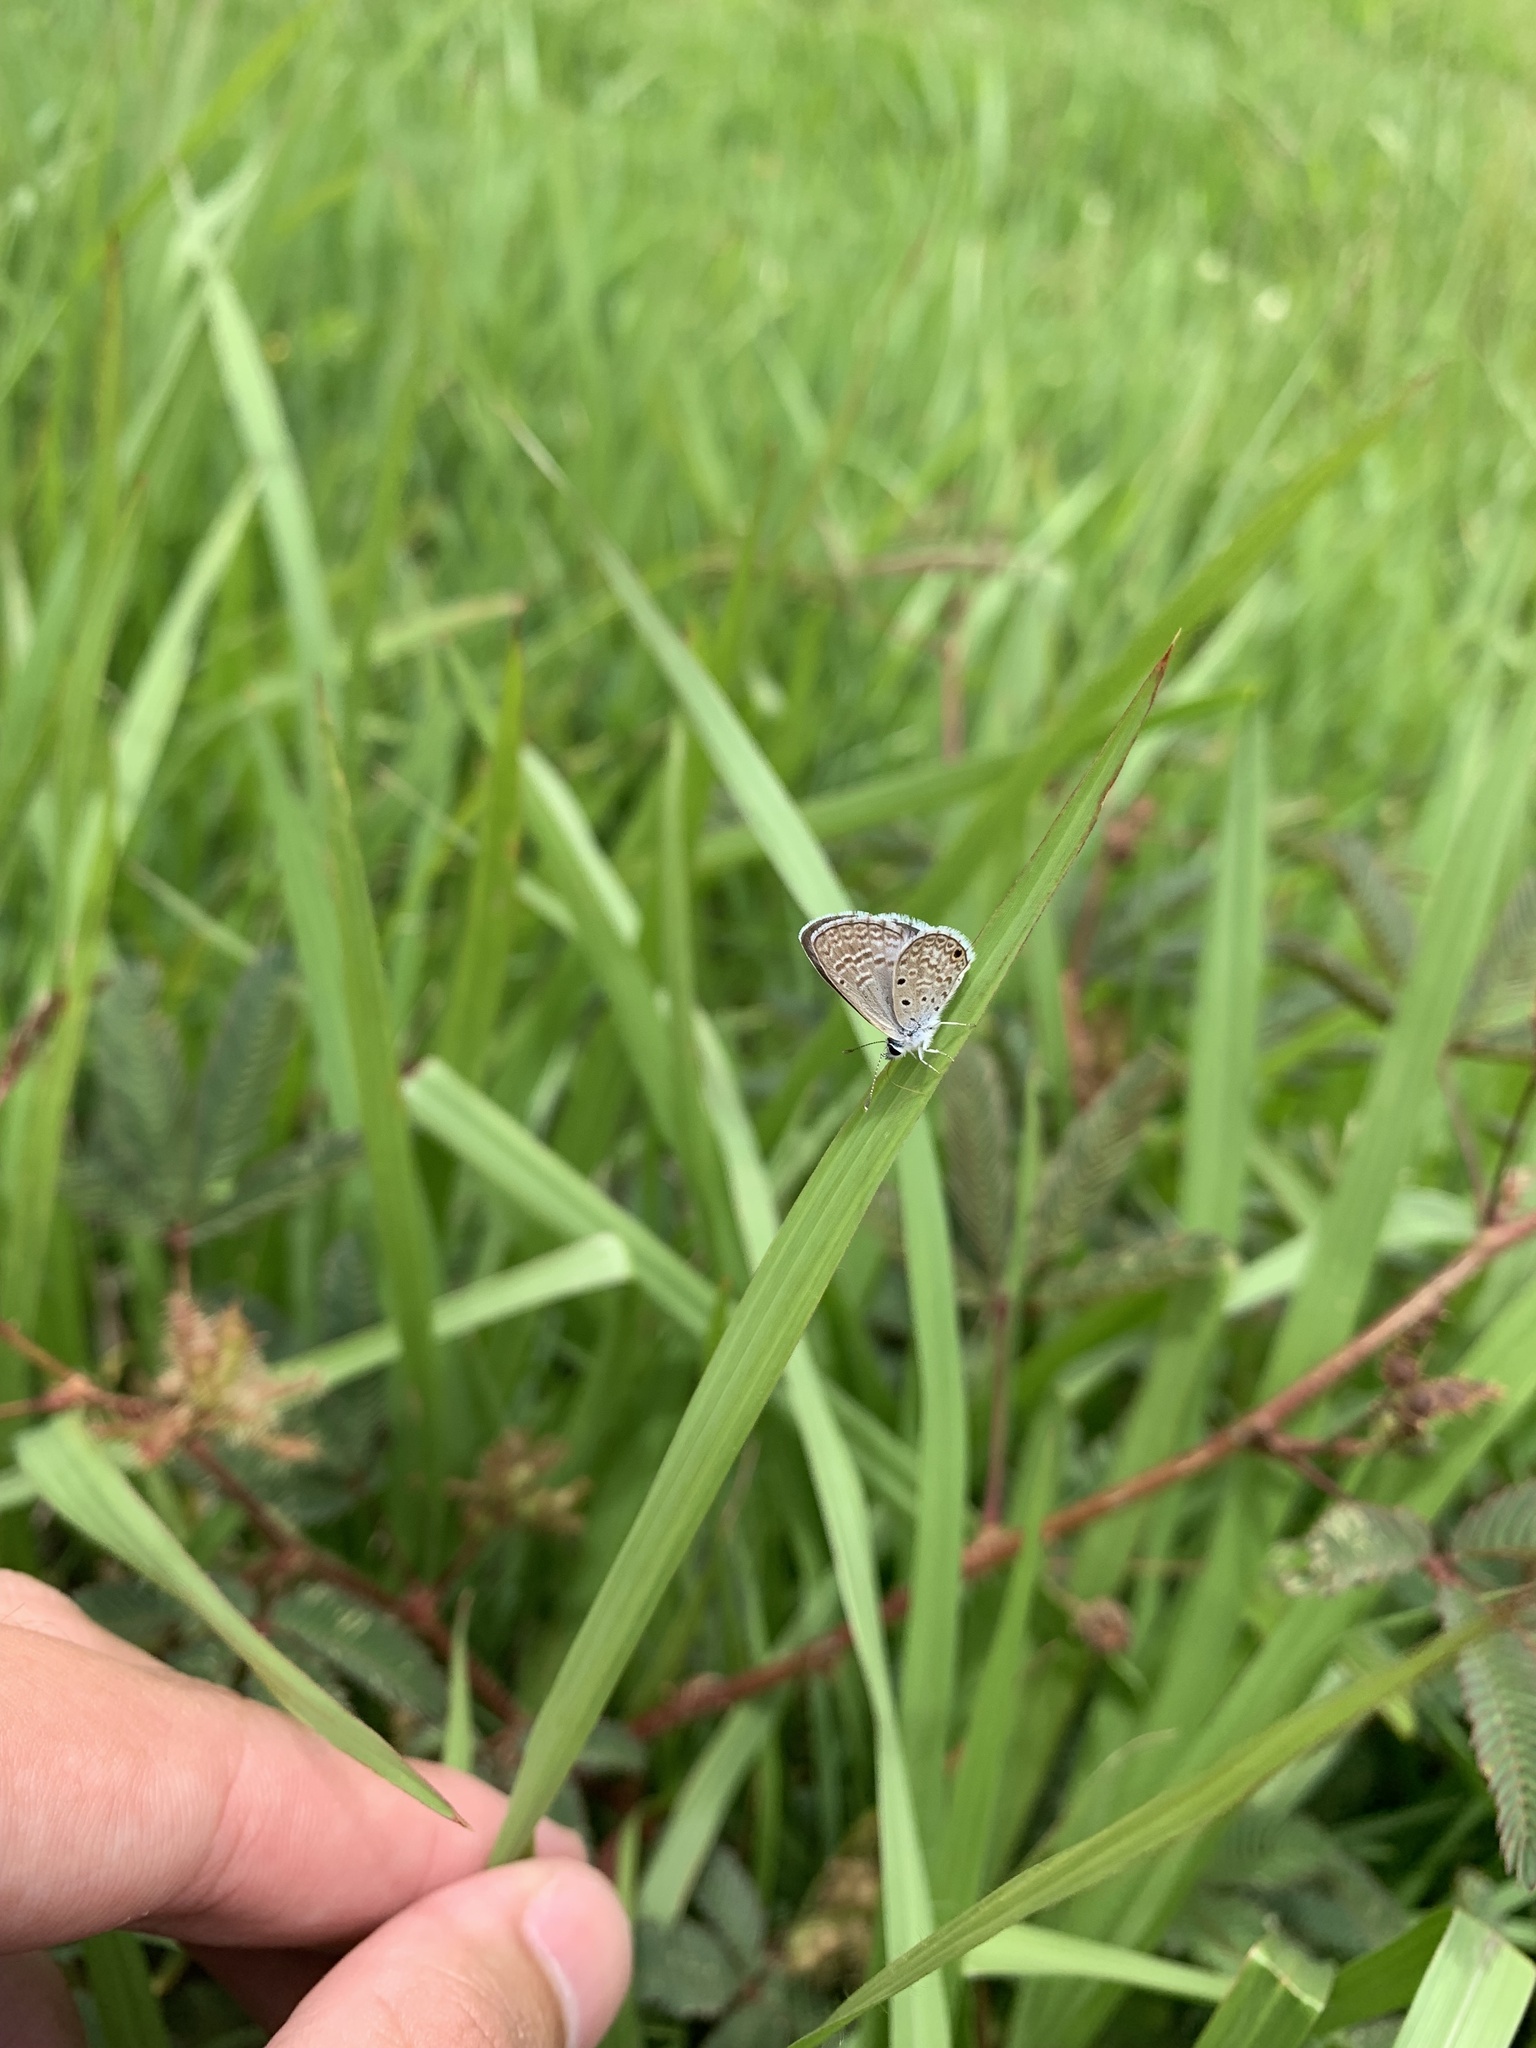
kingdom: Animalia
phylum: Arthropoda
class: Insecta
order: Lepidoptera
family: Lycaenidae
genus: Hemiargus
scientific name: Hemiargus hanno
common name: Common blue
